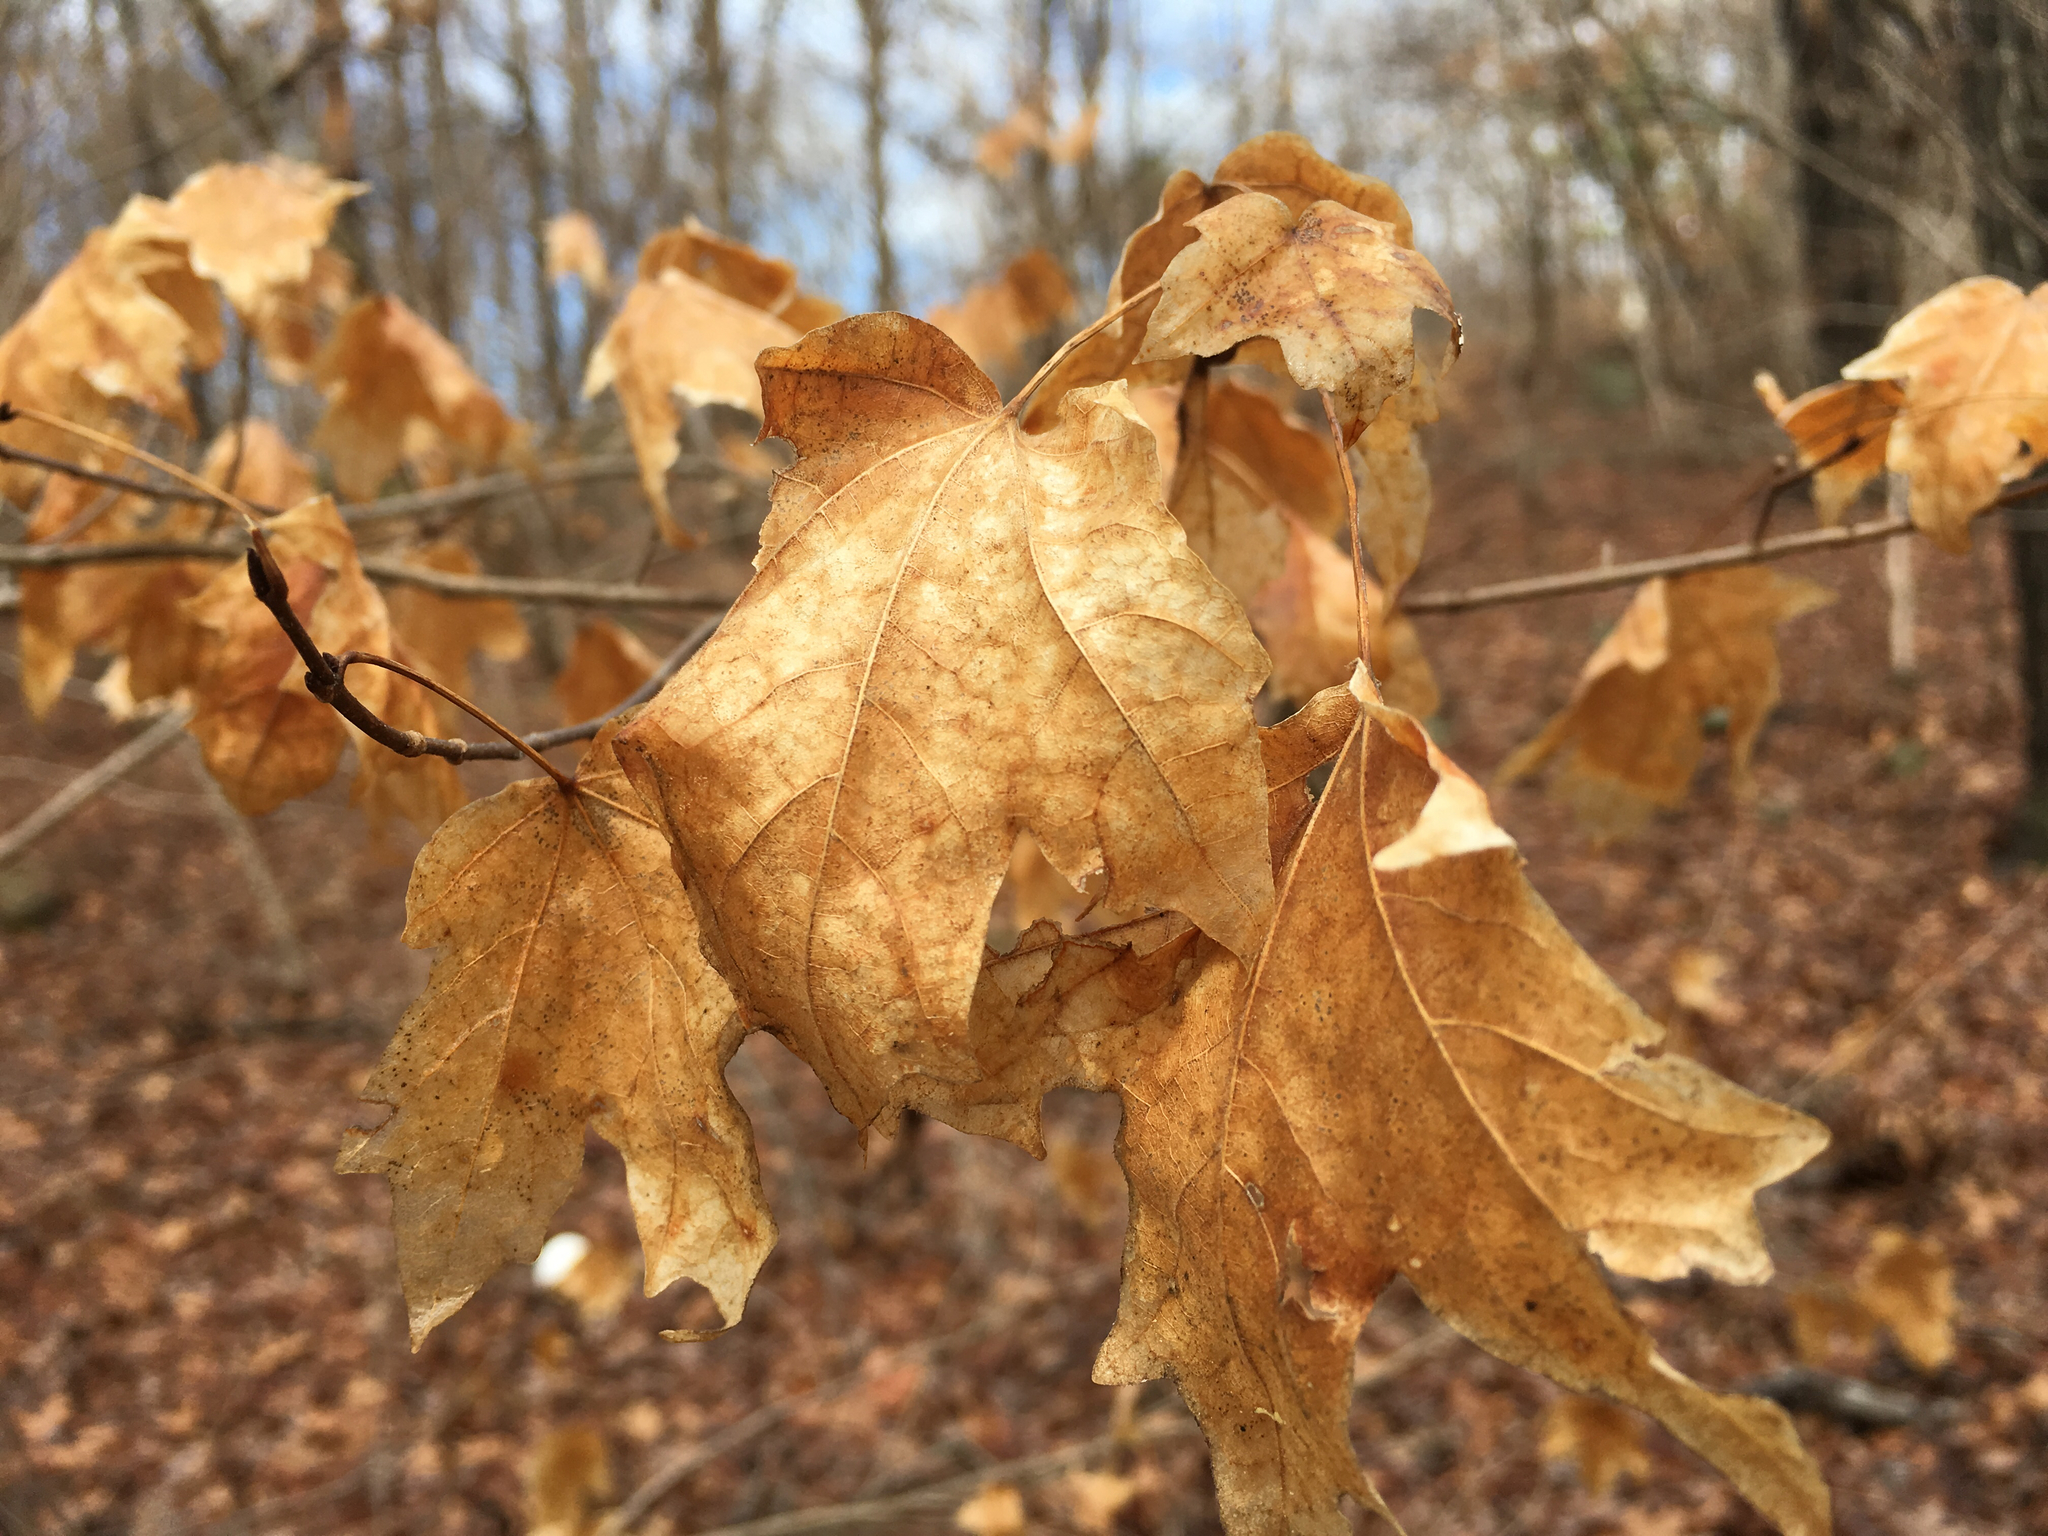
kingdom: Plantae
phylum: Tracheophyta
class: Magnoliopsida
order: Sapindales
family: Sapindaceae
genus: Acer
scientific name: Acer leucoderme
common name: Chalk maple
